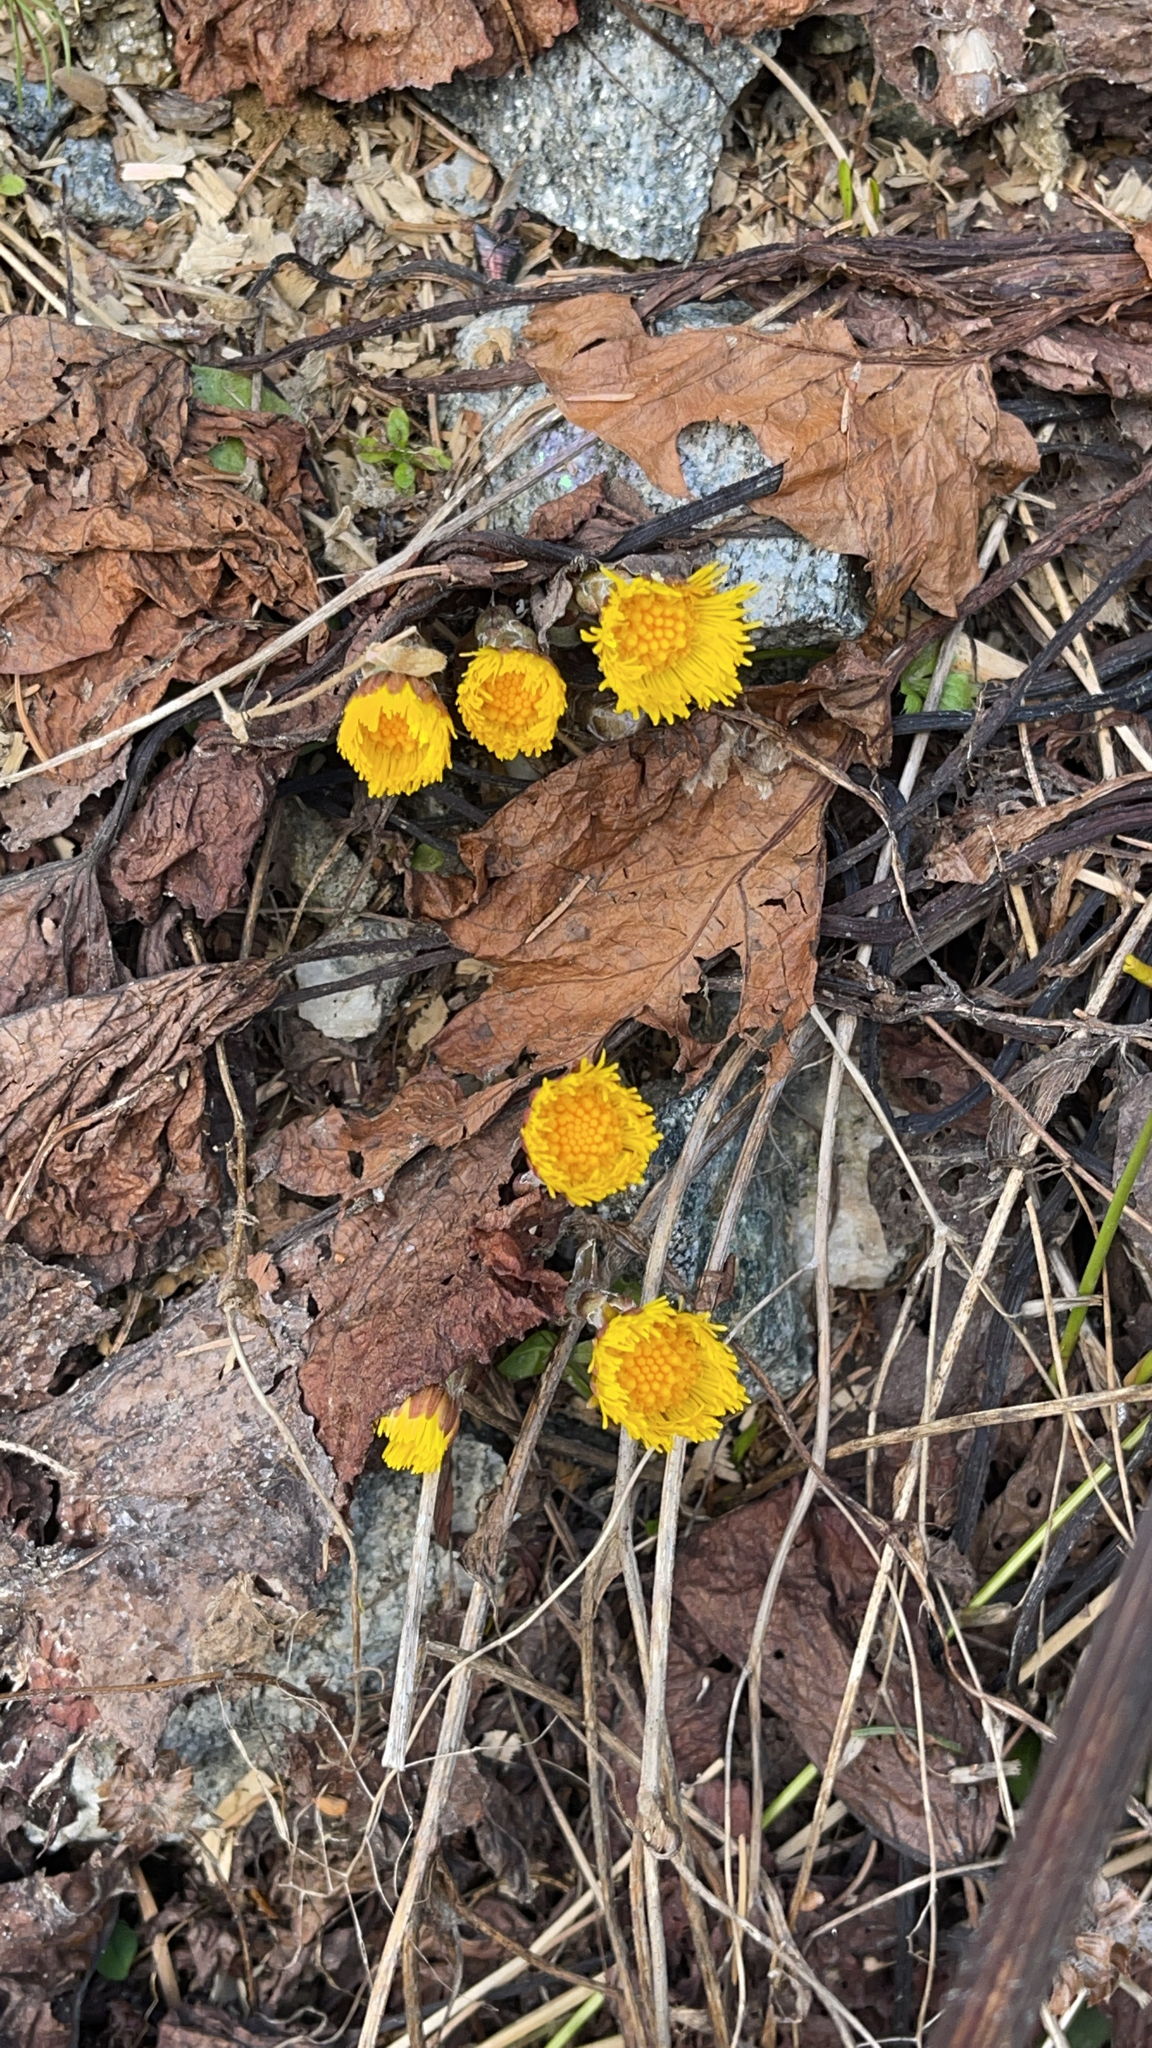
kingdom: Plantae
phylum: Tracheophyta
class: Magnoliopsida
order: Asterales
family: Asteraceae
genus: Tussilago
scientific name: Tussilago farfara
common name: Coltsfoot
